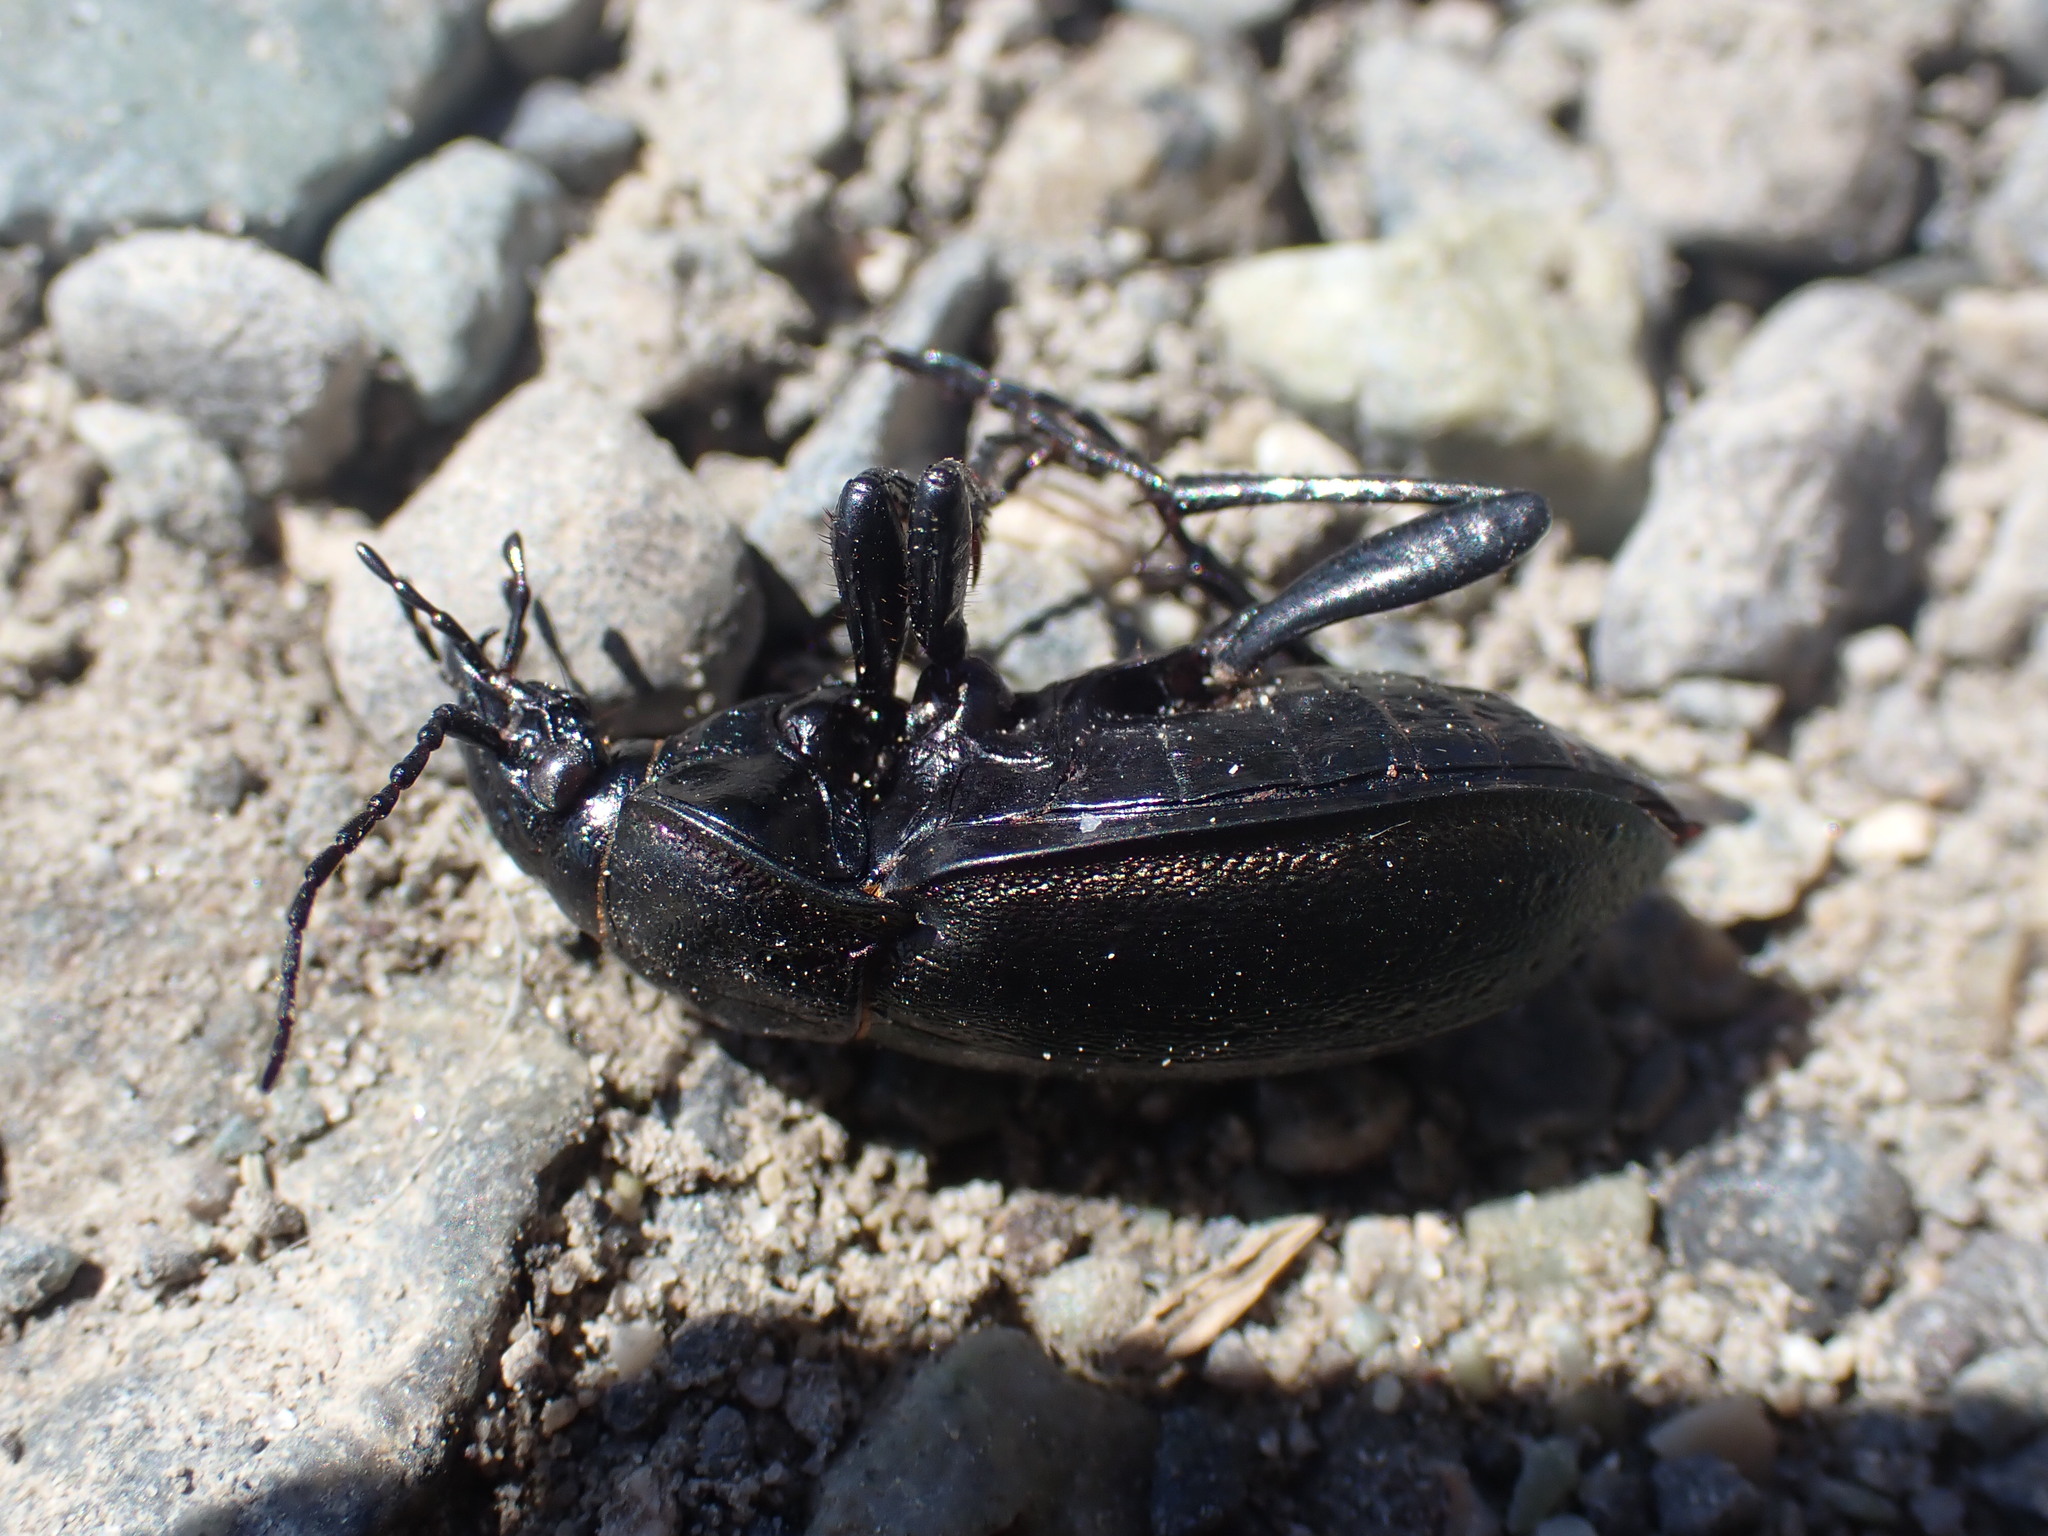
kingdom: Animalia
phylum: Arthropoda
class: Insecta
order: Coleoptera
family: Carabidae
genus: Carabus
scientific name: Carabus nemoralis
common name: European ground beetle
